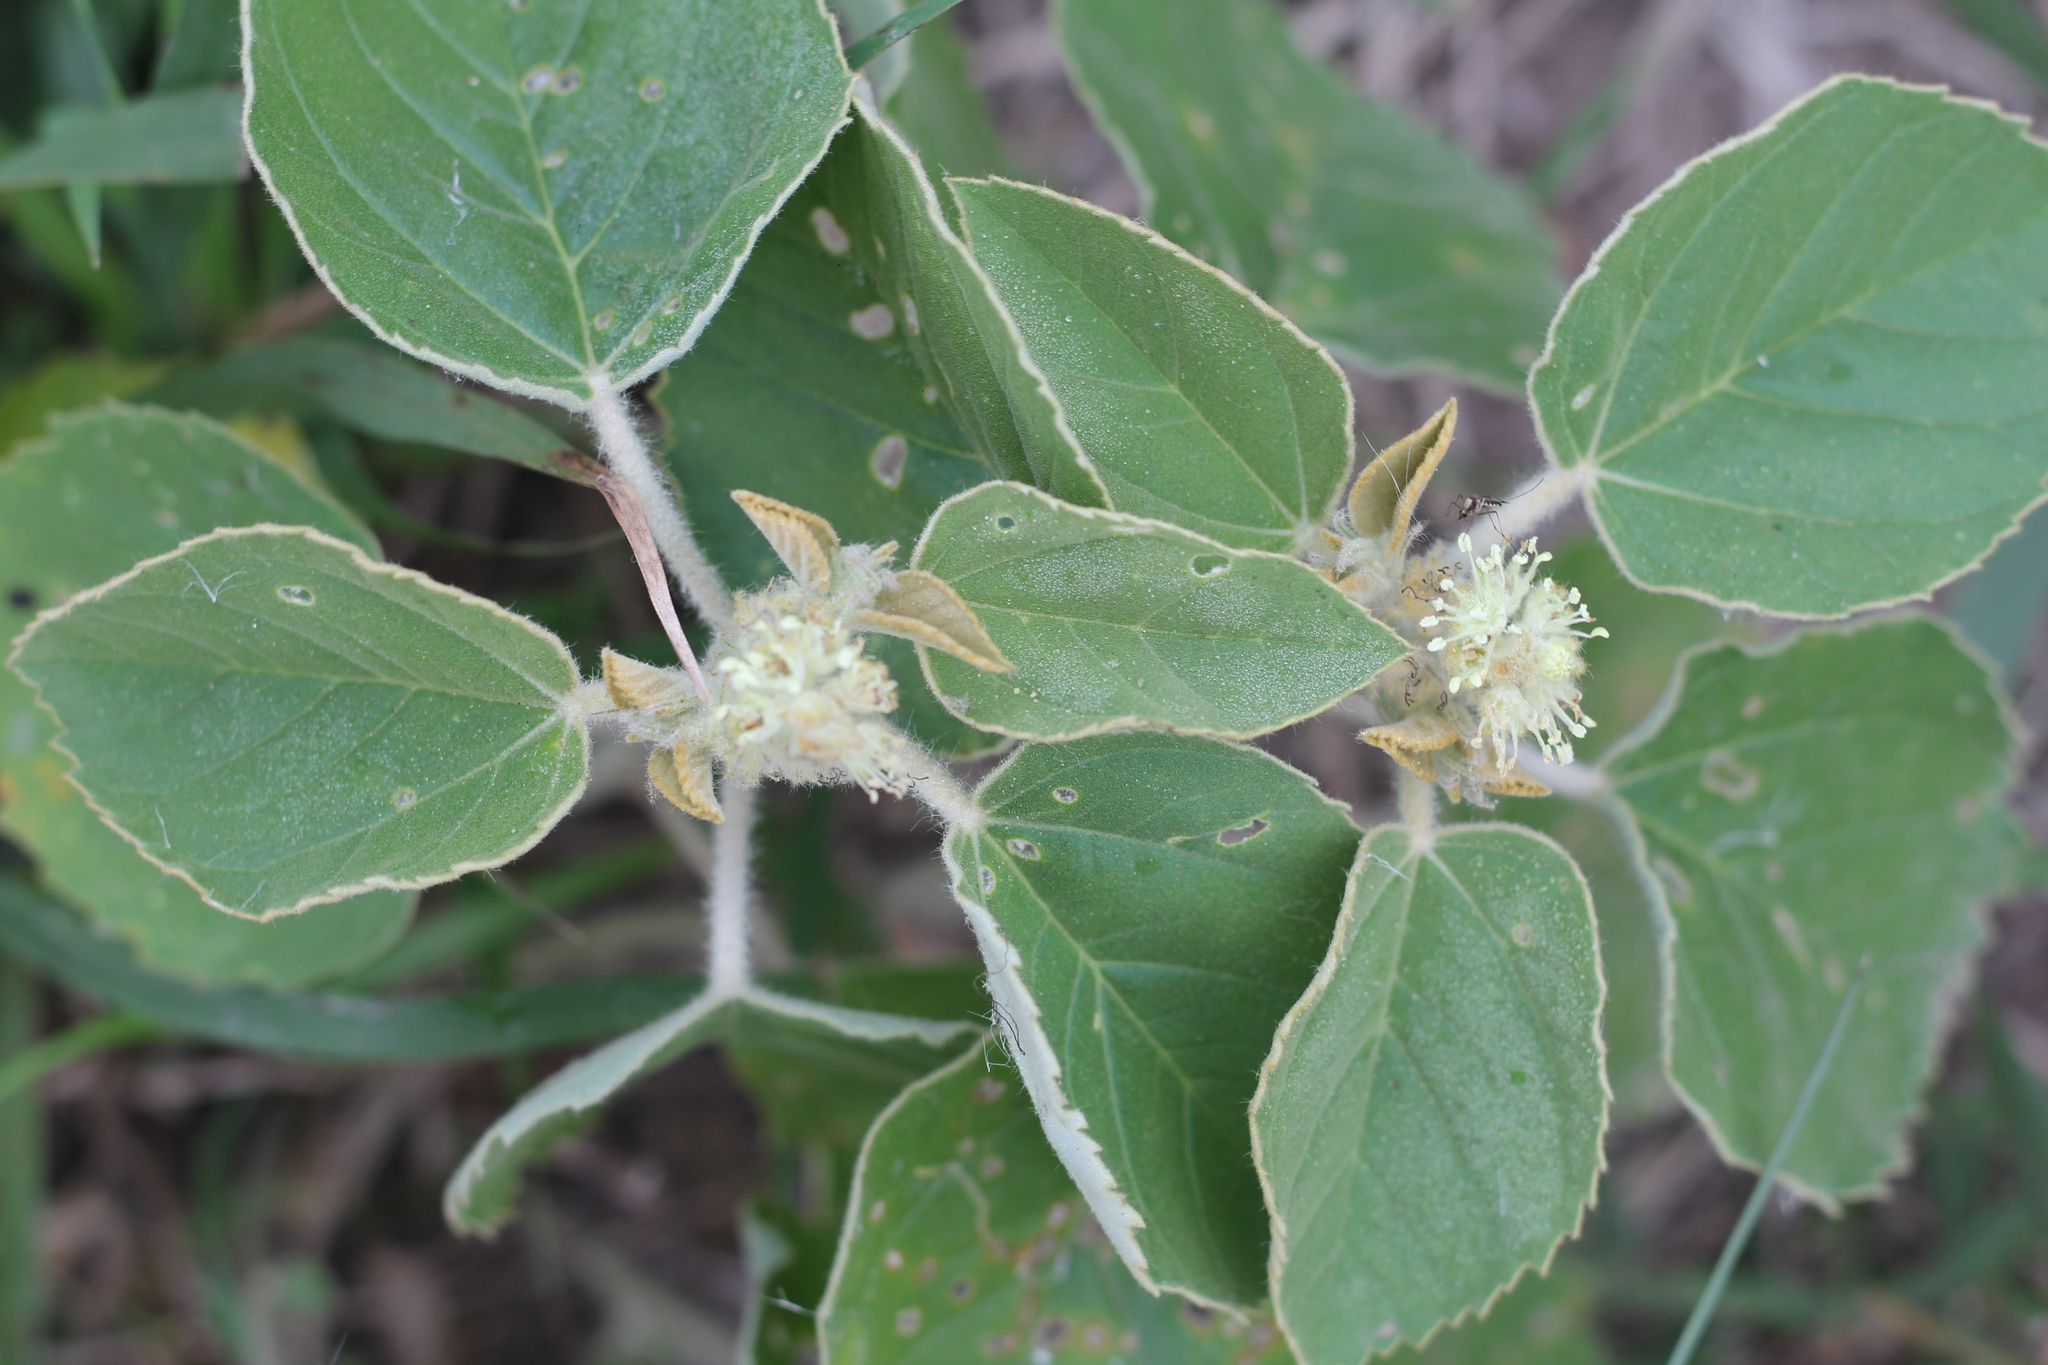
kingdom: Plantae
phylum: Tracheophyta
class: Magnoliopsida
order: Malpighiales
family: Euphorbiaceae
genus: Croton
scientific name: Croton subpannosus
